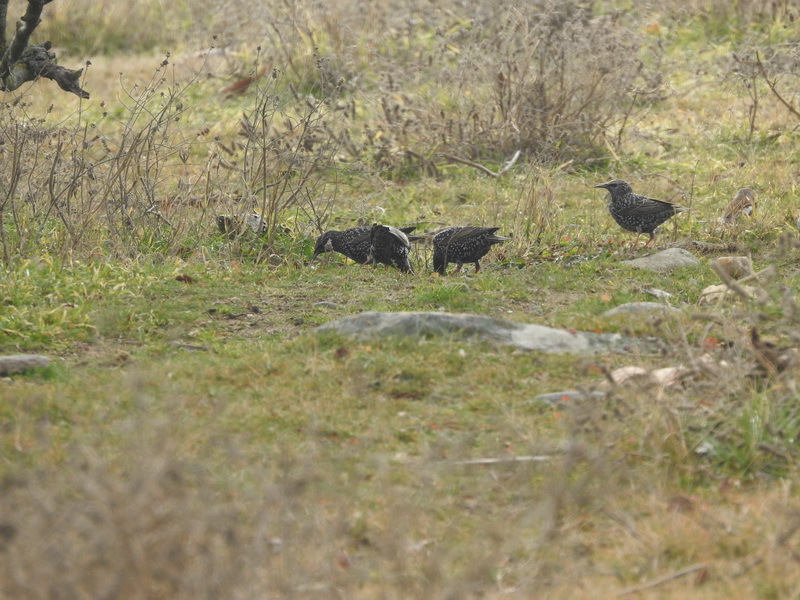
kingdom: Animalia
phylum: Chordata
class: Aves
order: Passeriformes
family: Sturnidae
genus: Sturnus
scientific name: Sturnus vulgaris
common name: Common starling
